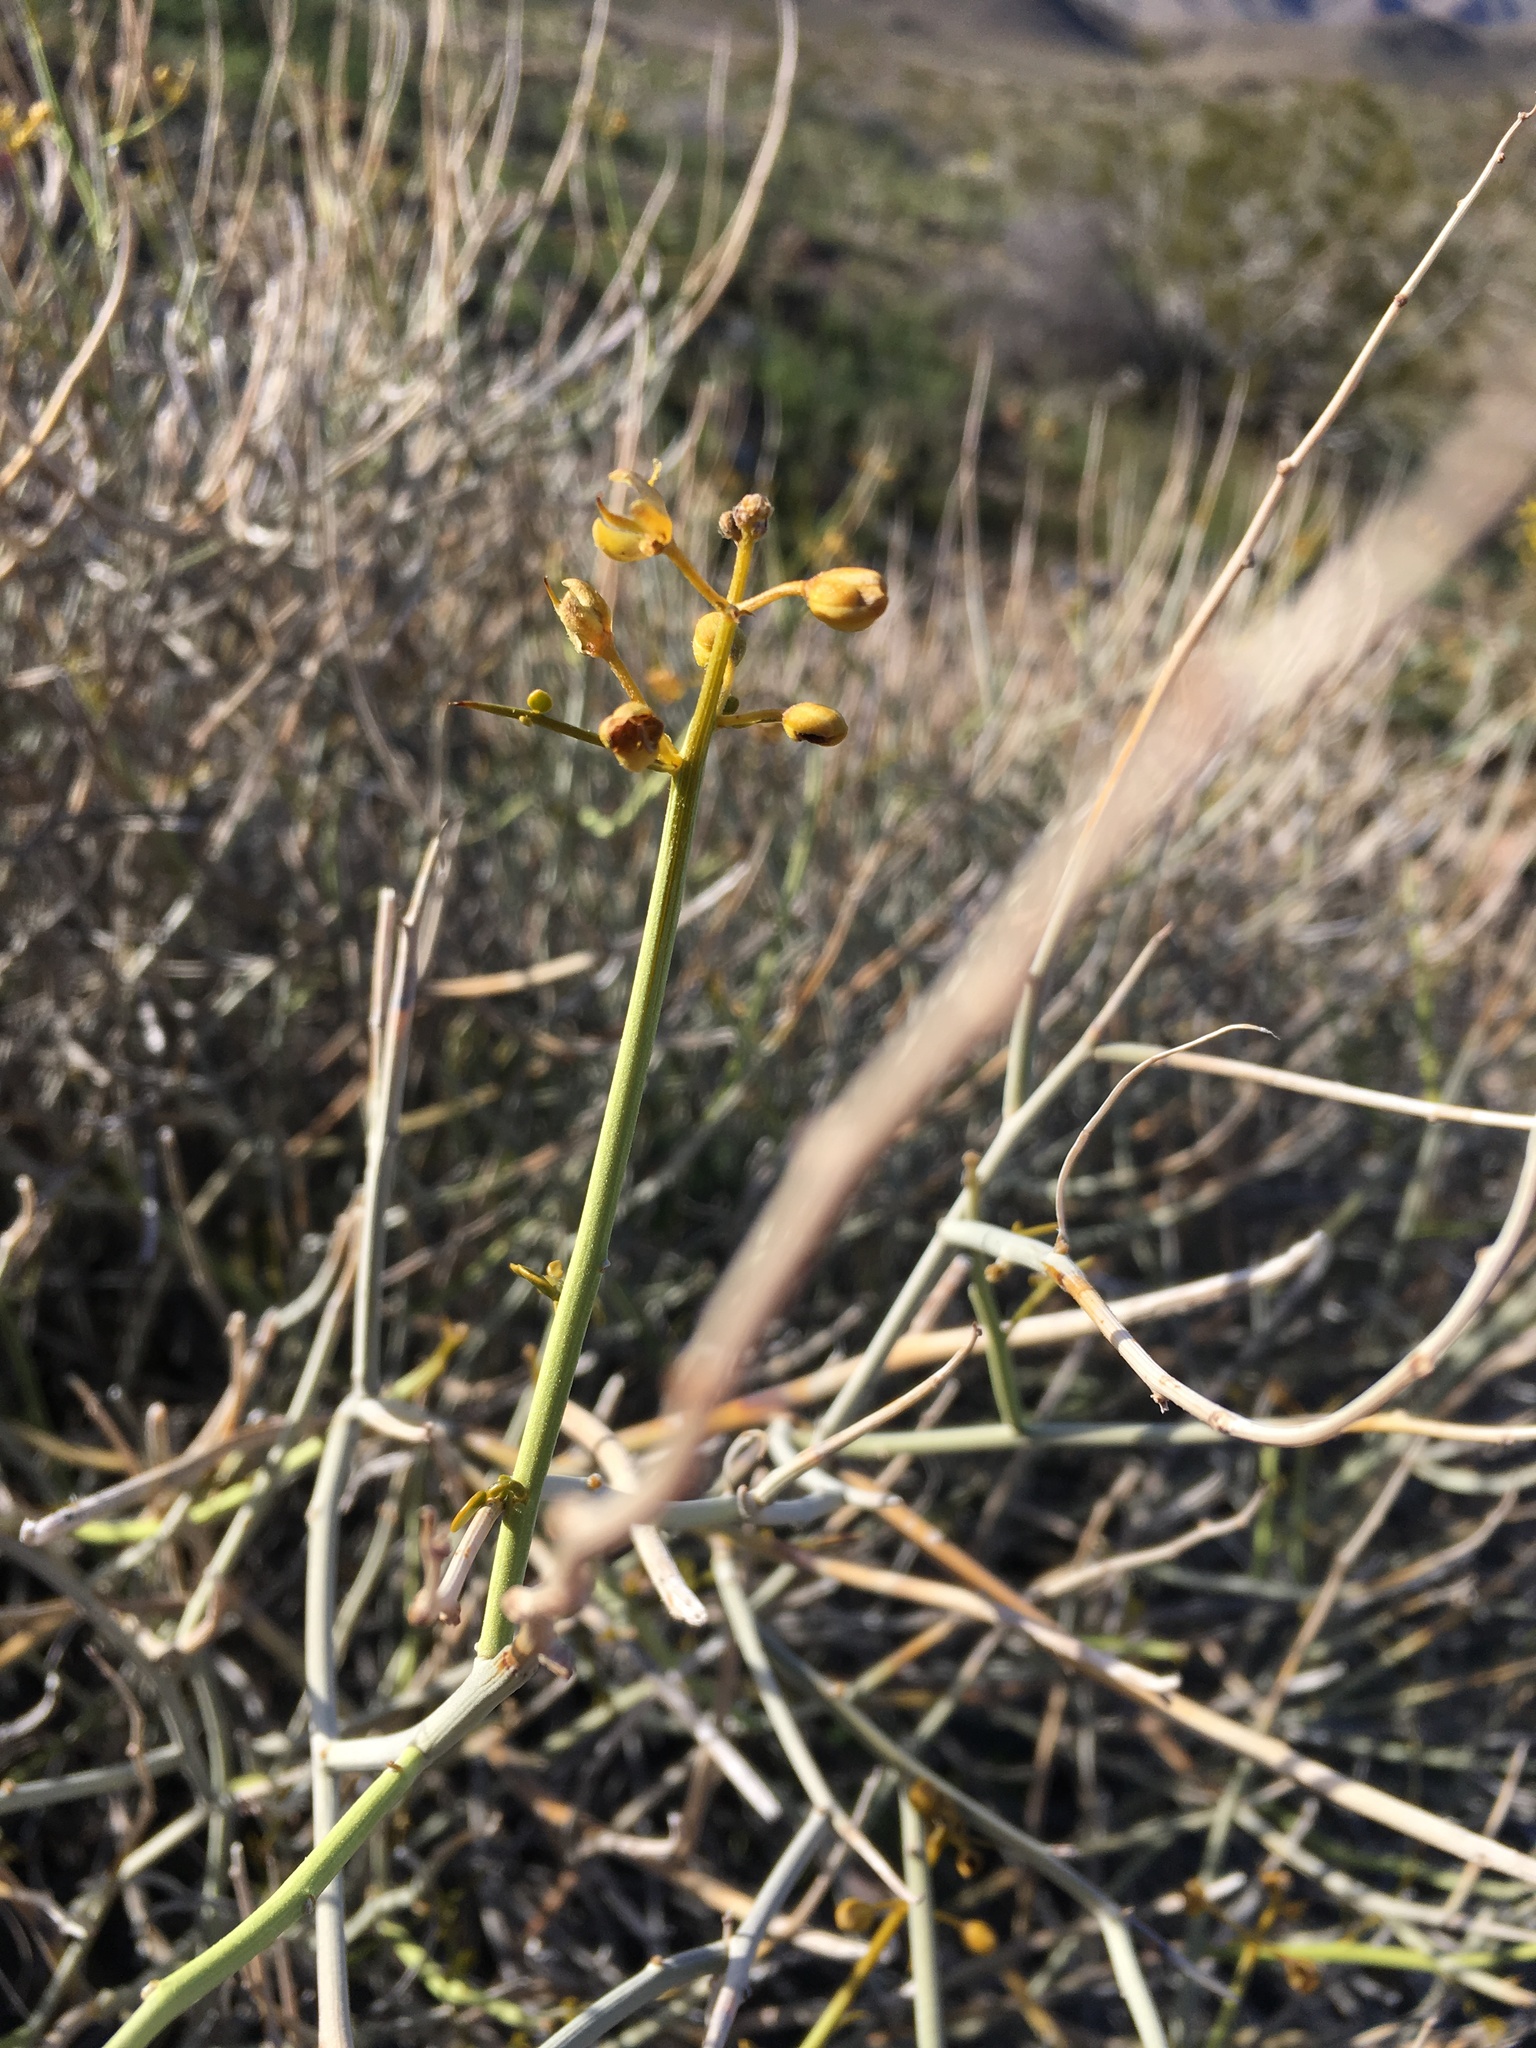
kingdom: Plantae
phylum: Tracheophyta
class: Magnoliopsida
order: Fabales
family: Fabaceae
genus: Senna
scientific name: Senna armata
